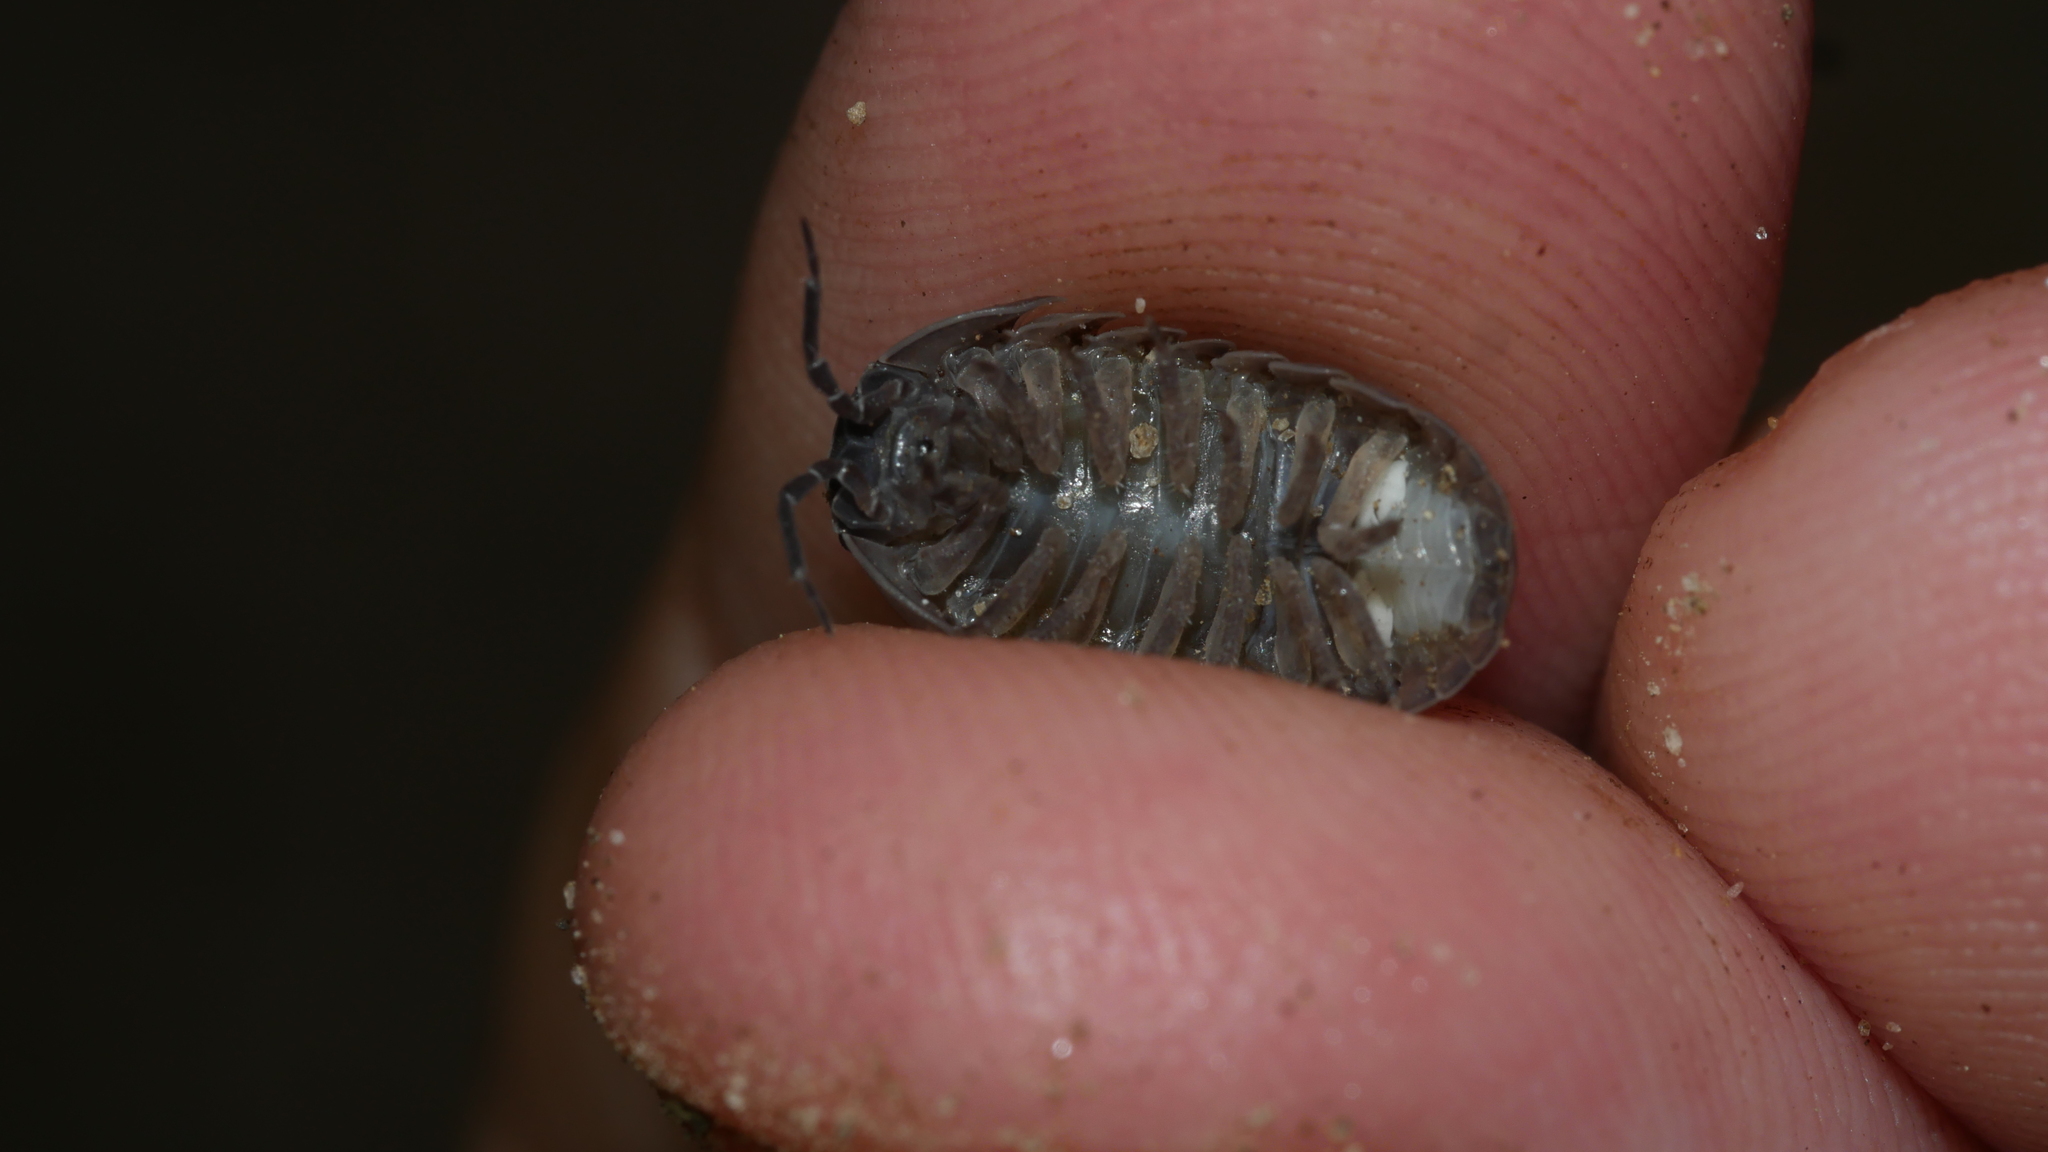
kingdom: Animalia
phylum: Arthropoda
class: Malacostraca
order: Isopoda
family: Armadillidiidae
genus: Armadillidium
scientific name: Armadillidium vulgare
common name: Common pill woodlouse
